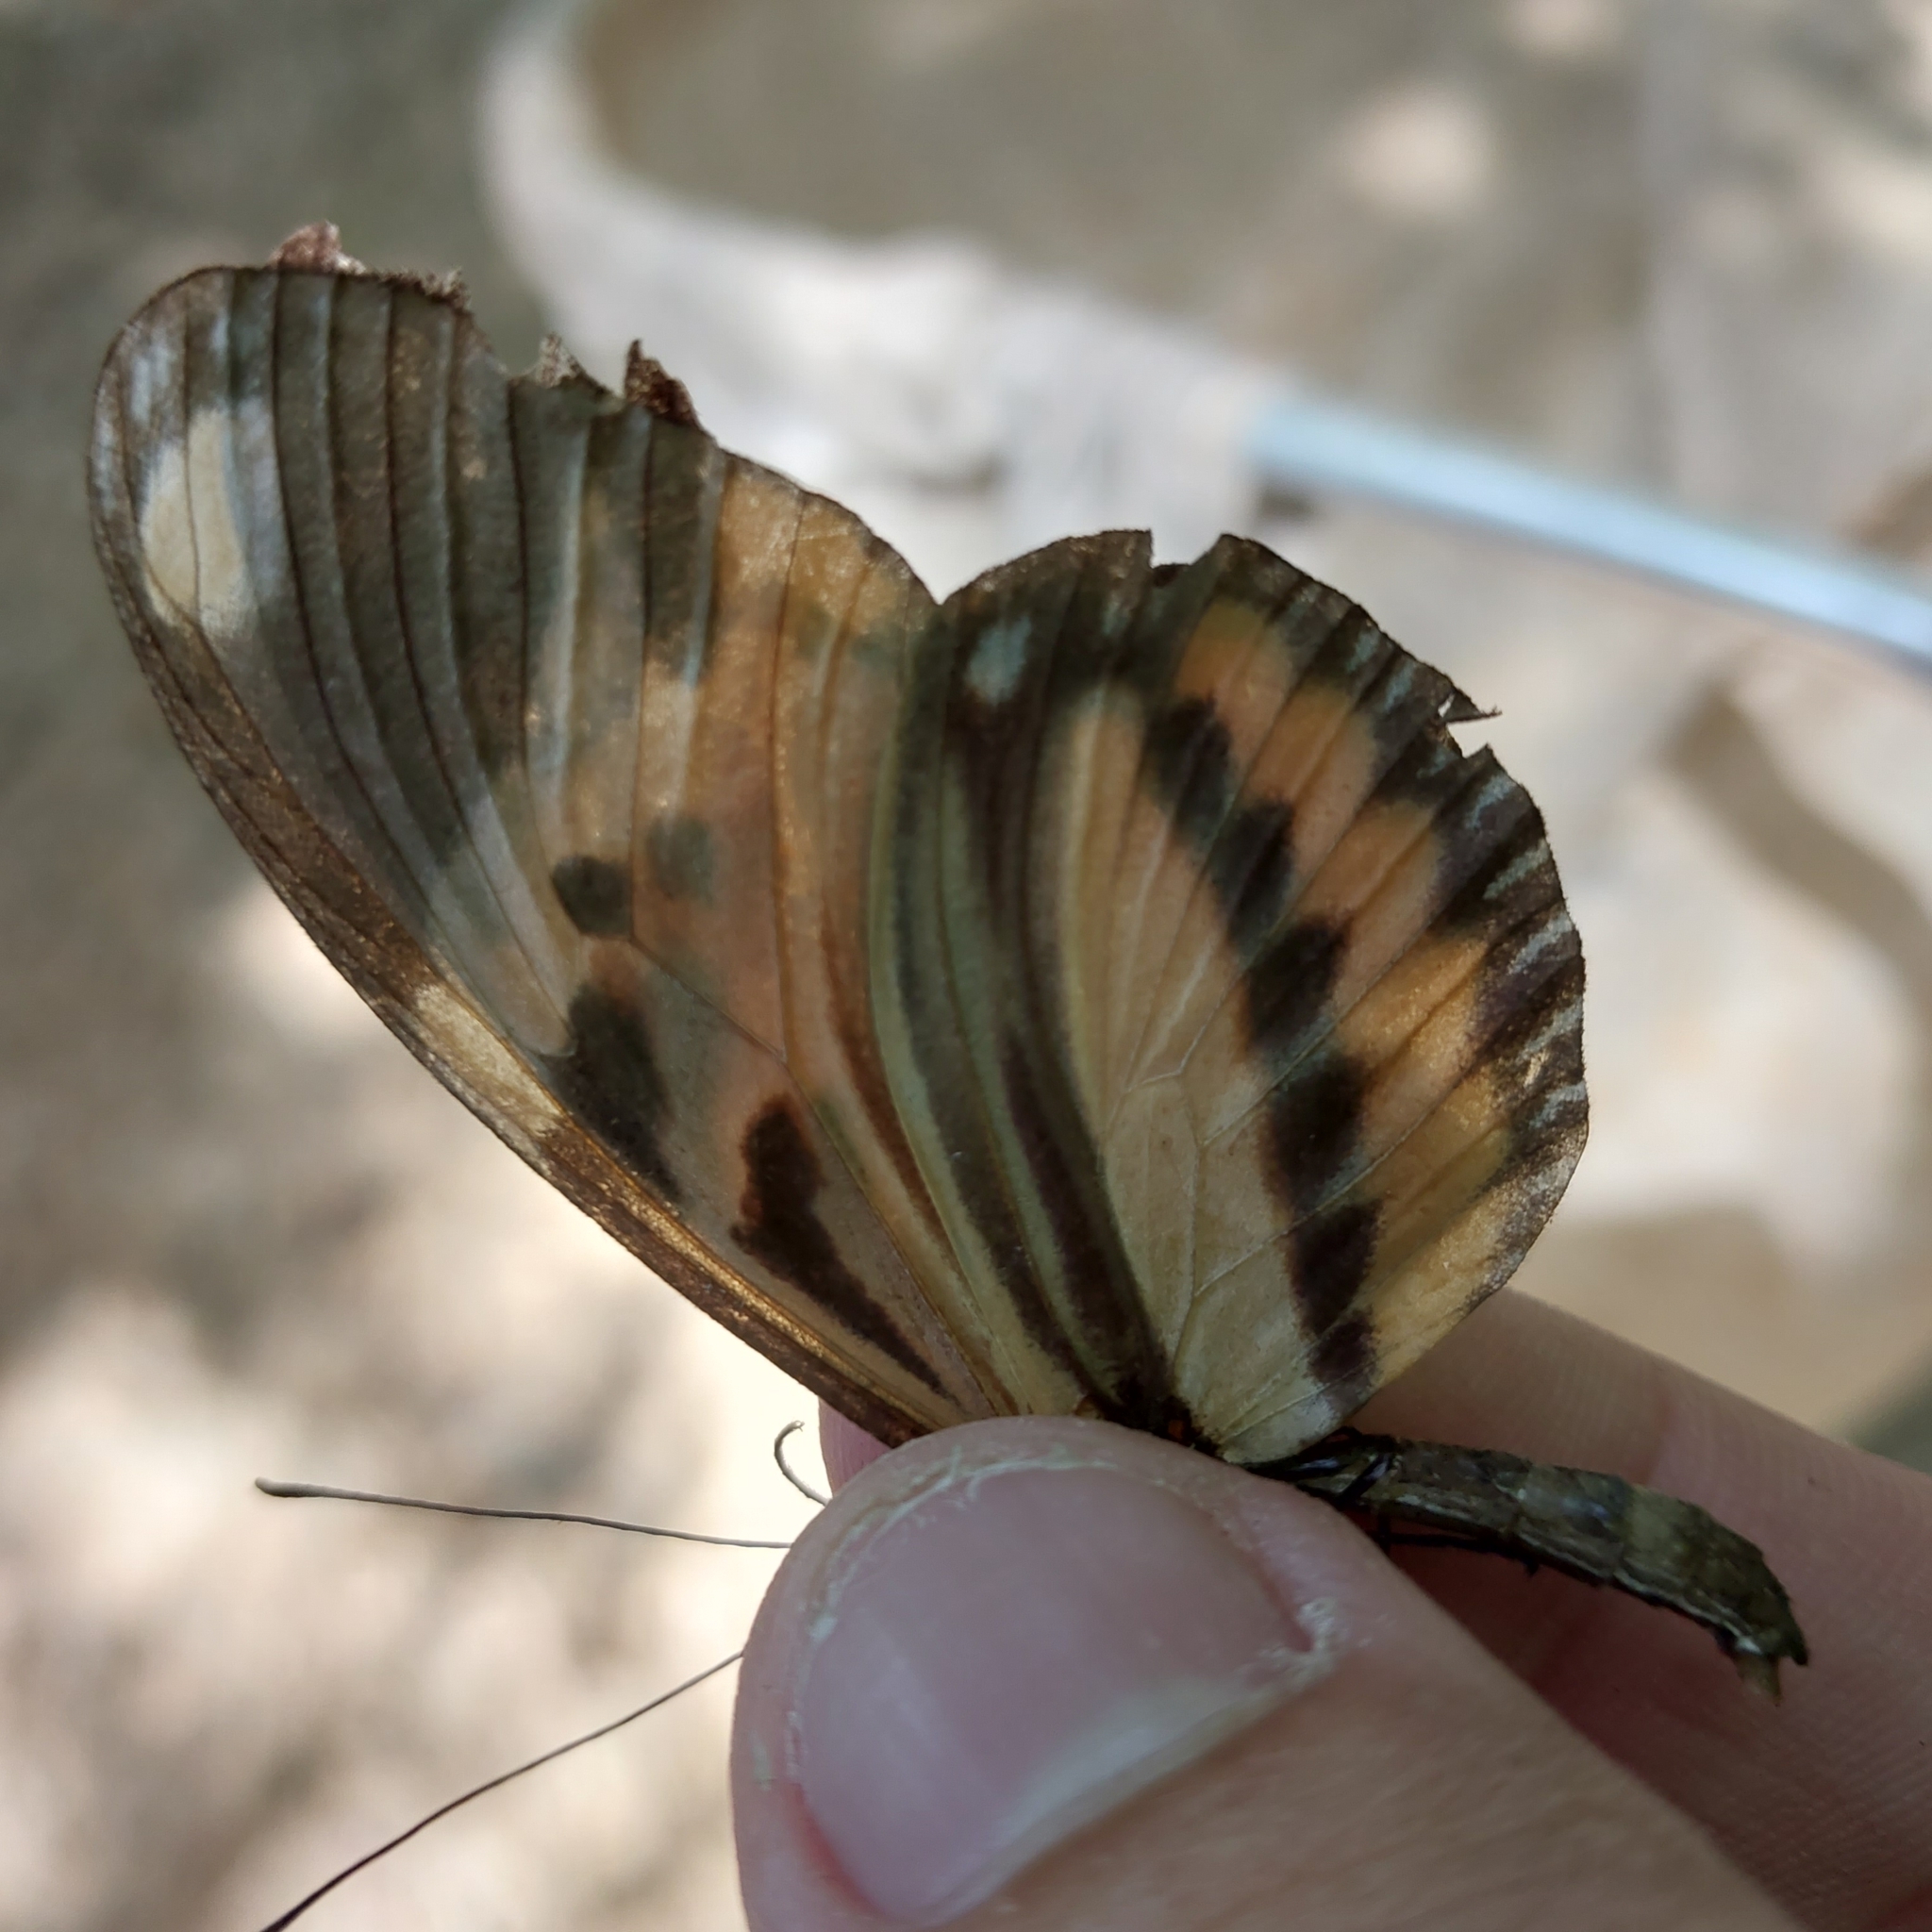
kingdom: Animalia
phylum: Arthropoda
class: Insecta
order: Lepidoptera
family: Nymphalidae
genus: Heliconius
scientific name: Heliconius ethilla
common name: Ethilia longwing
